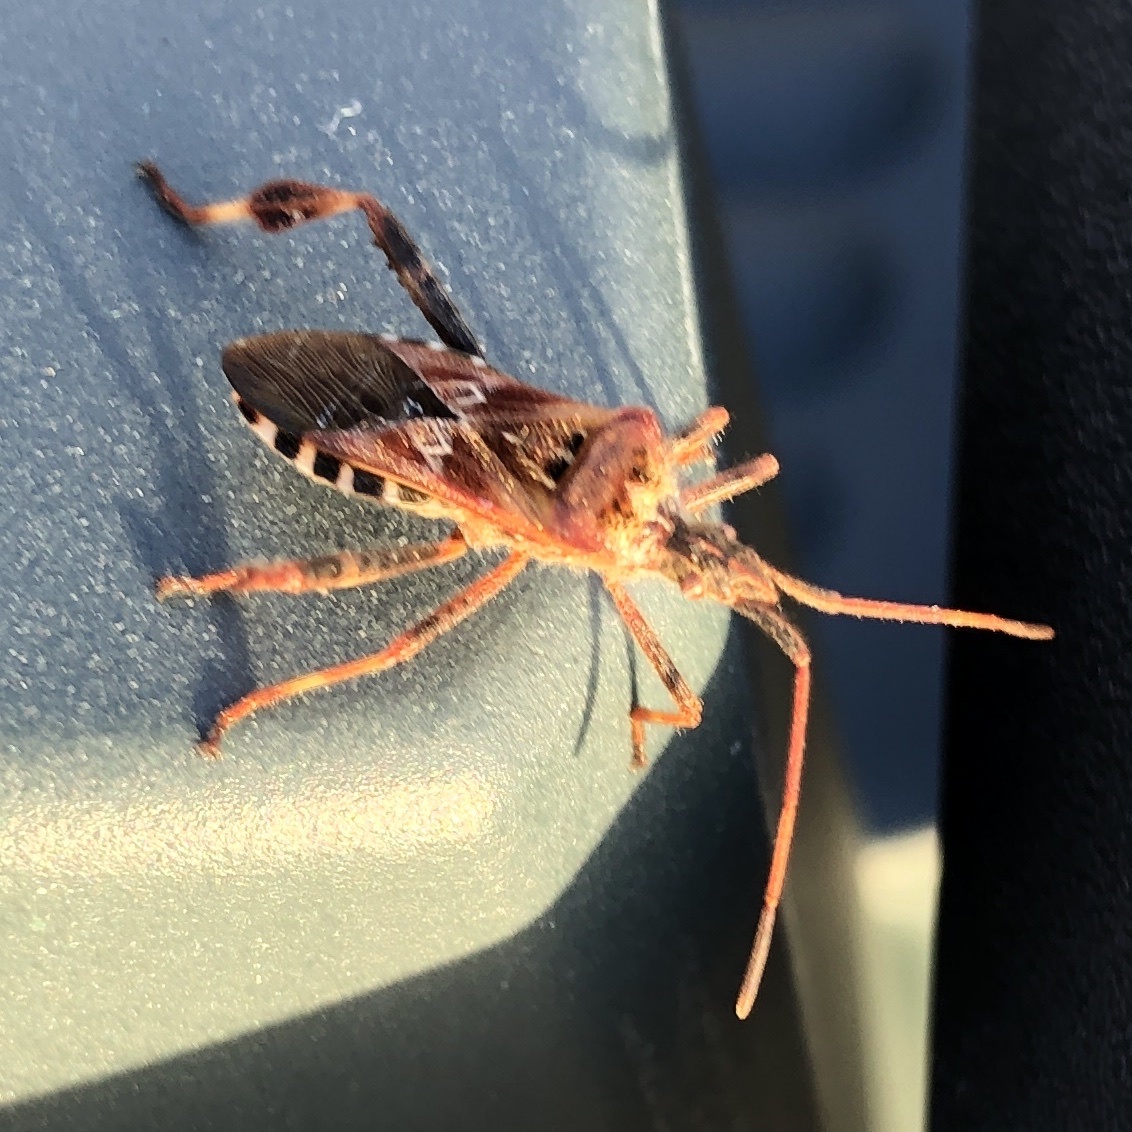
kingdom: Animalia
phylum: Arthropoda
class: Insecta
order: Hemiptera
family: Coreidae
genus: Leptoglossus
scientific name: Leptoglossus occidentalis
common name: Western conifer-seed bug
